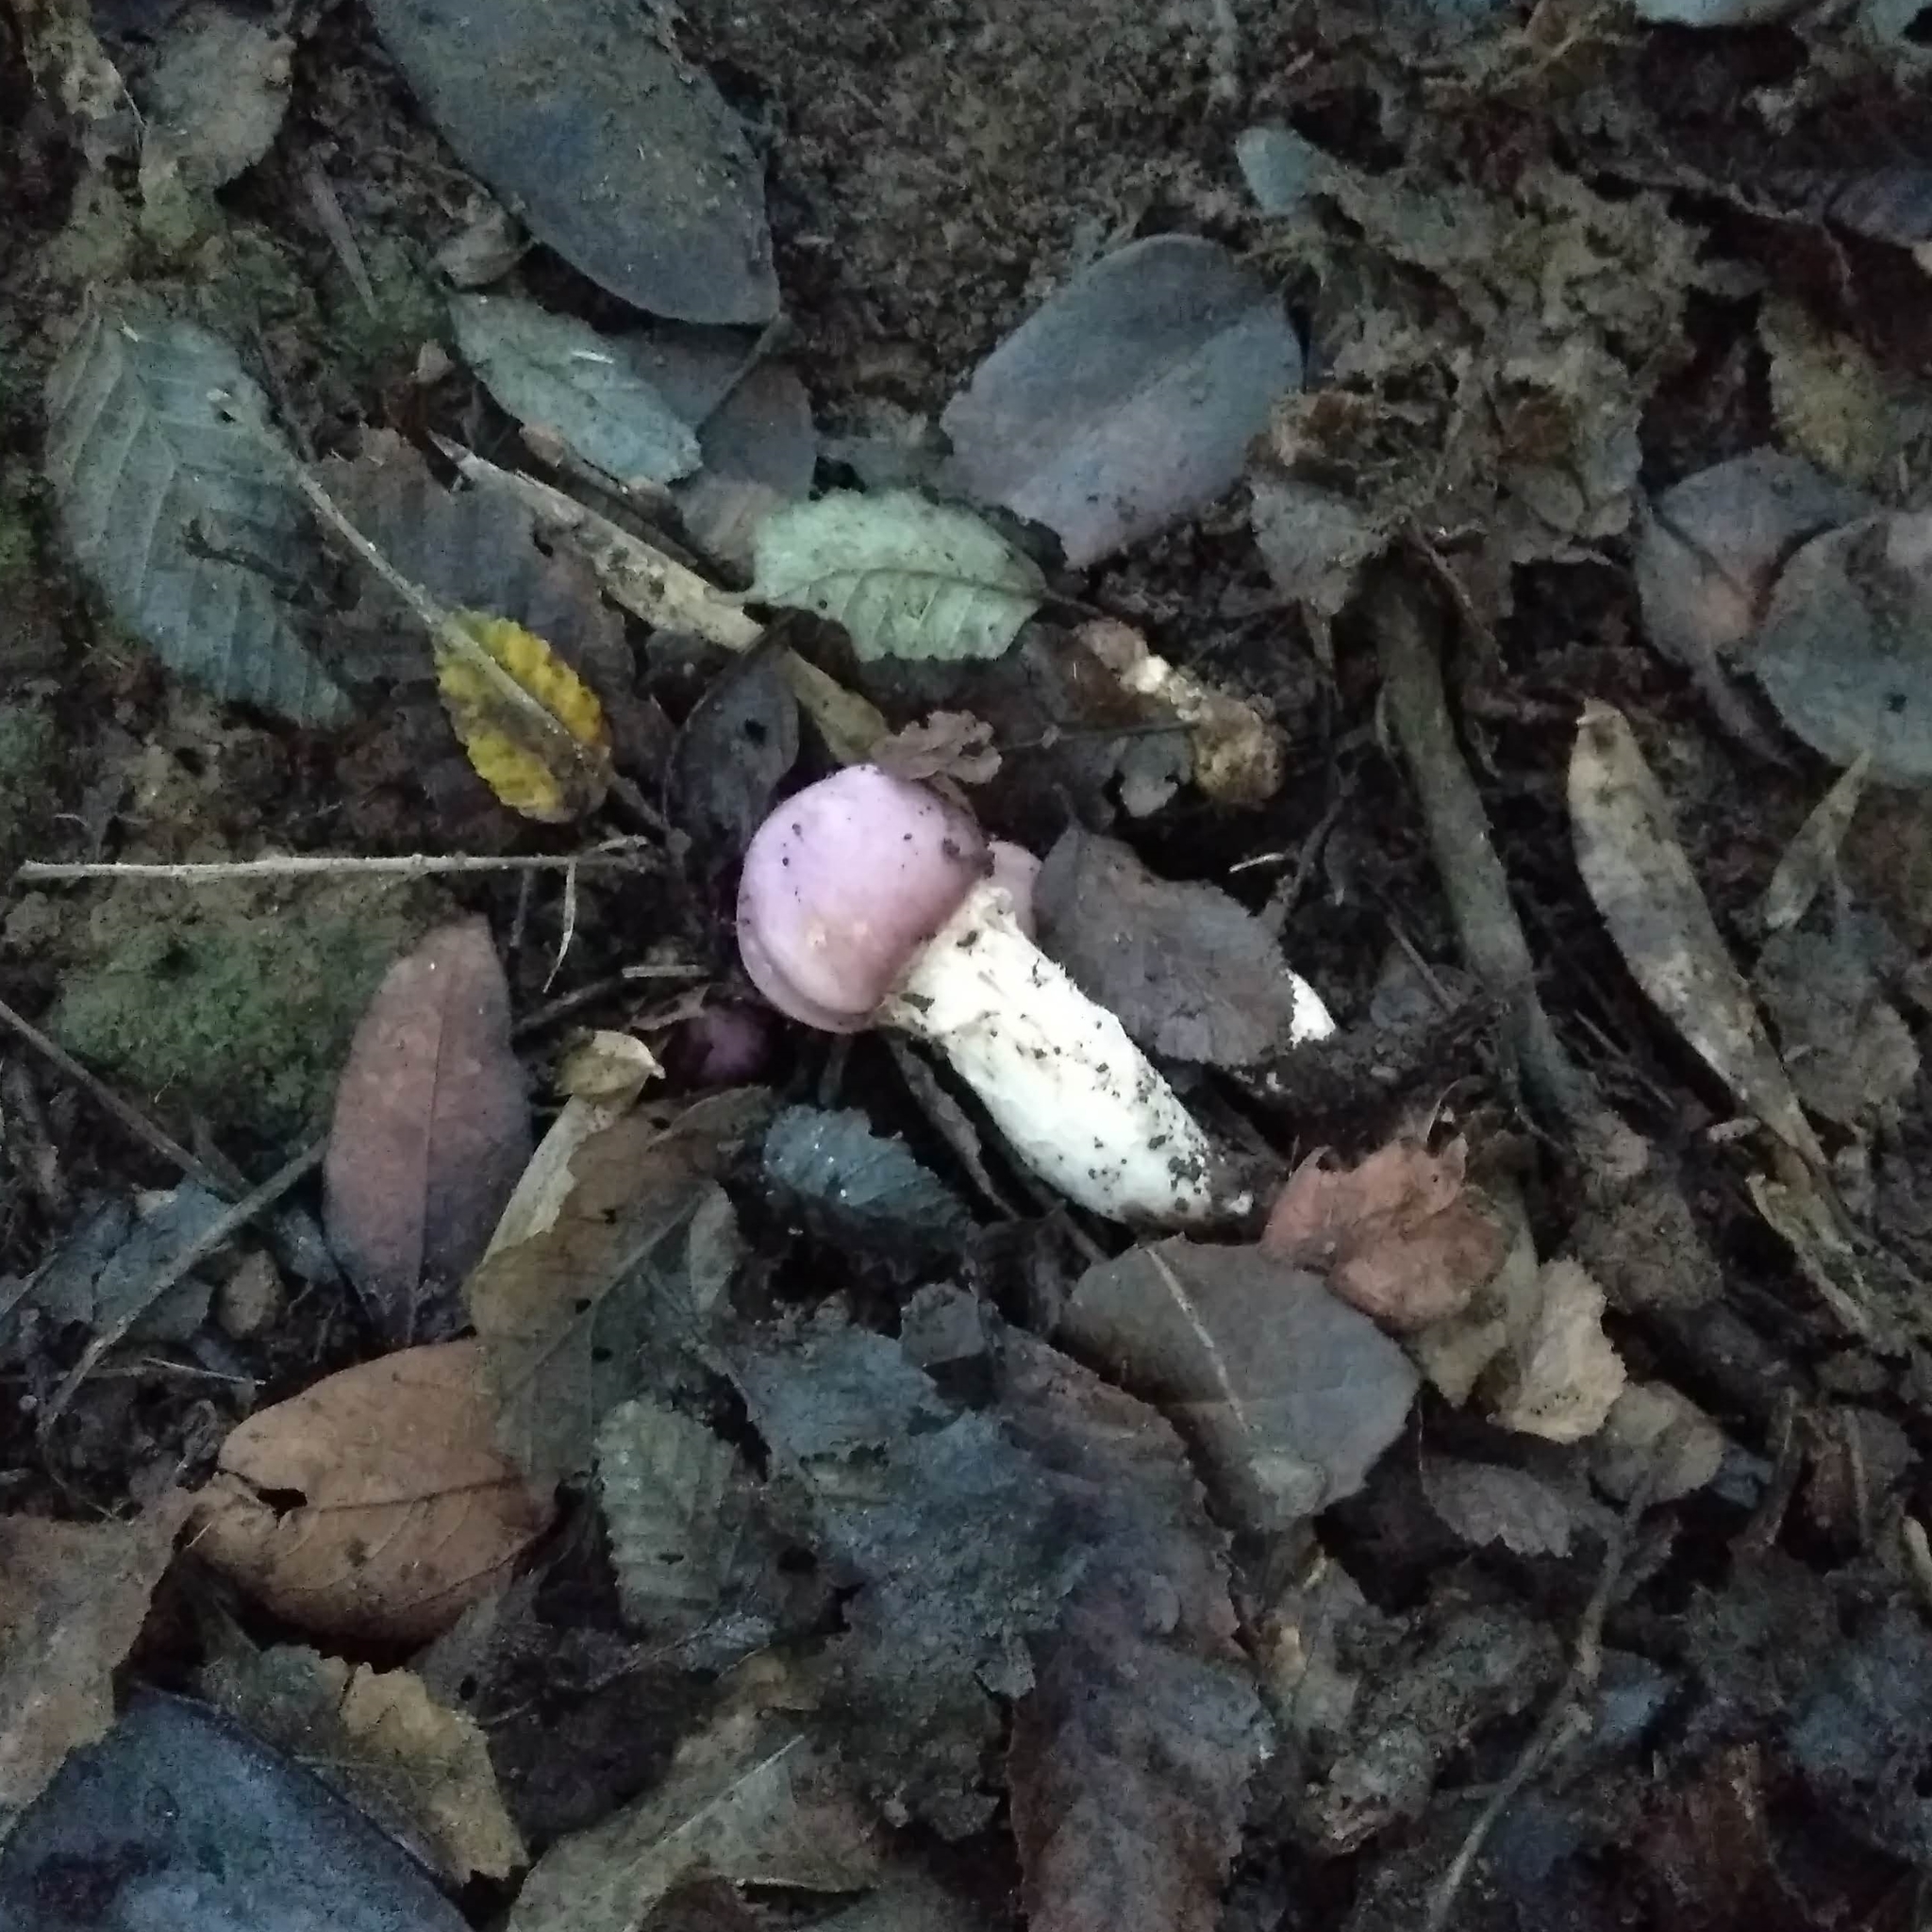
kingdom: Fungi
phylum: Basidiomycota
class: Agaricomycetes
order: Agaricales
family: Cortinariaceae
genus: Cortinarius
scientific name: Cortinarius lebre
